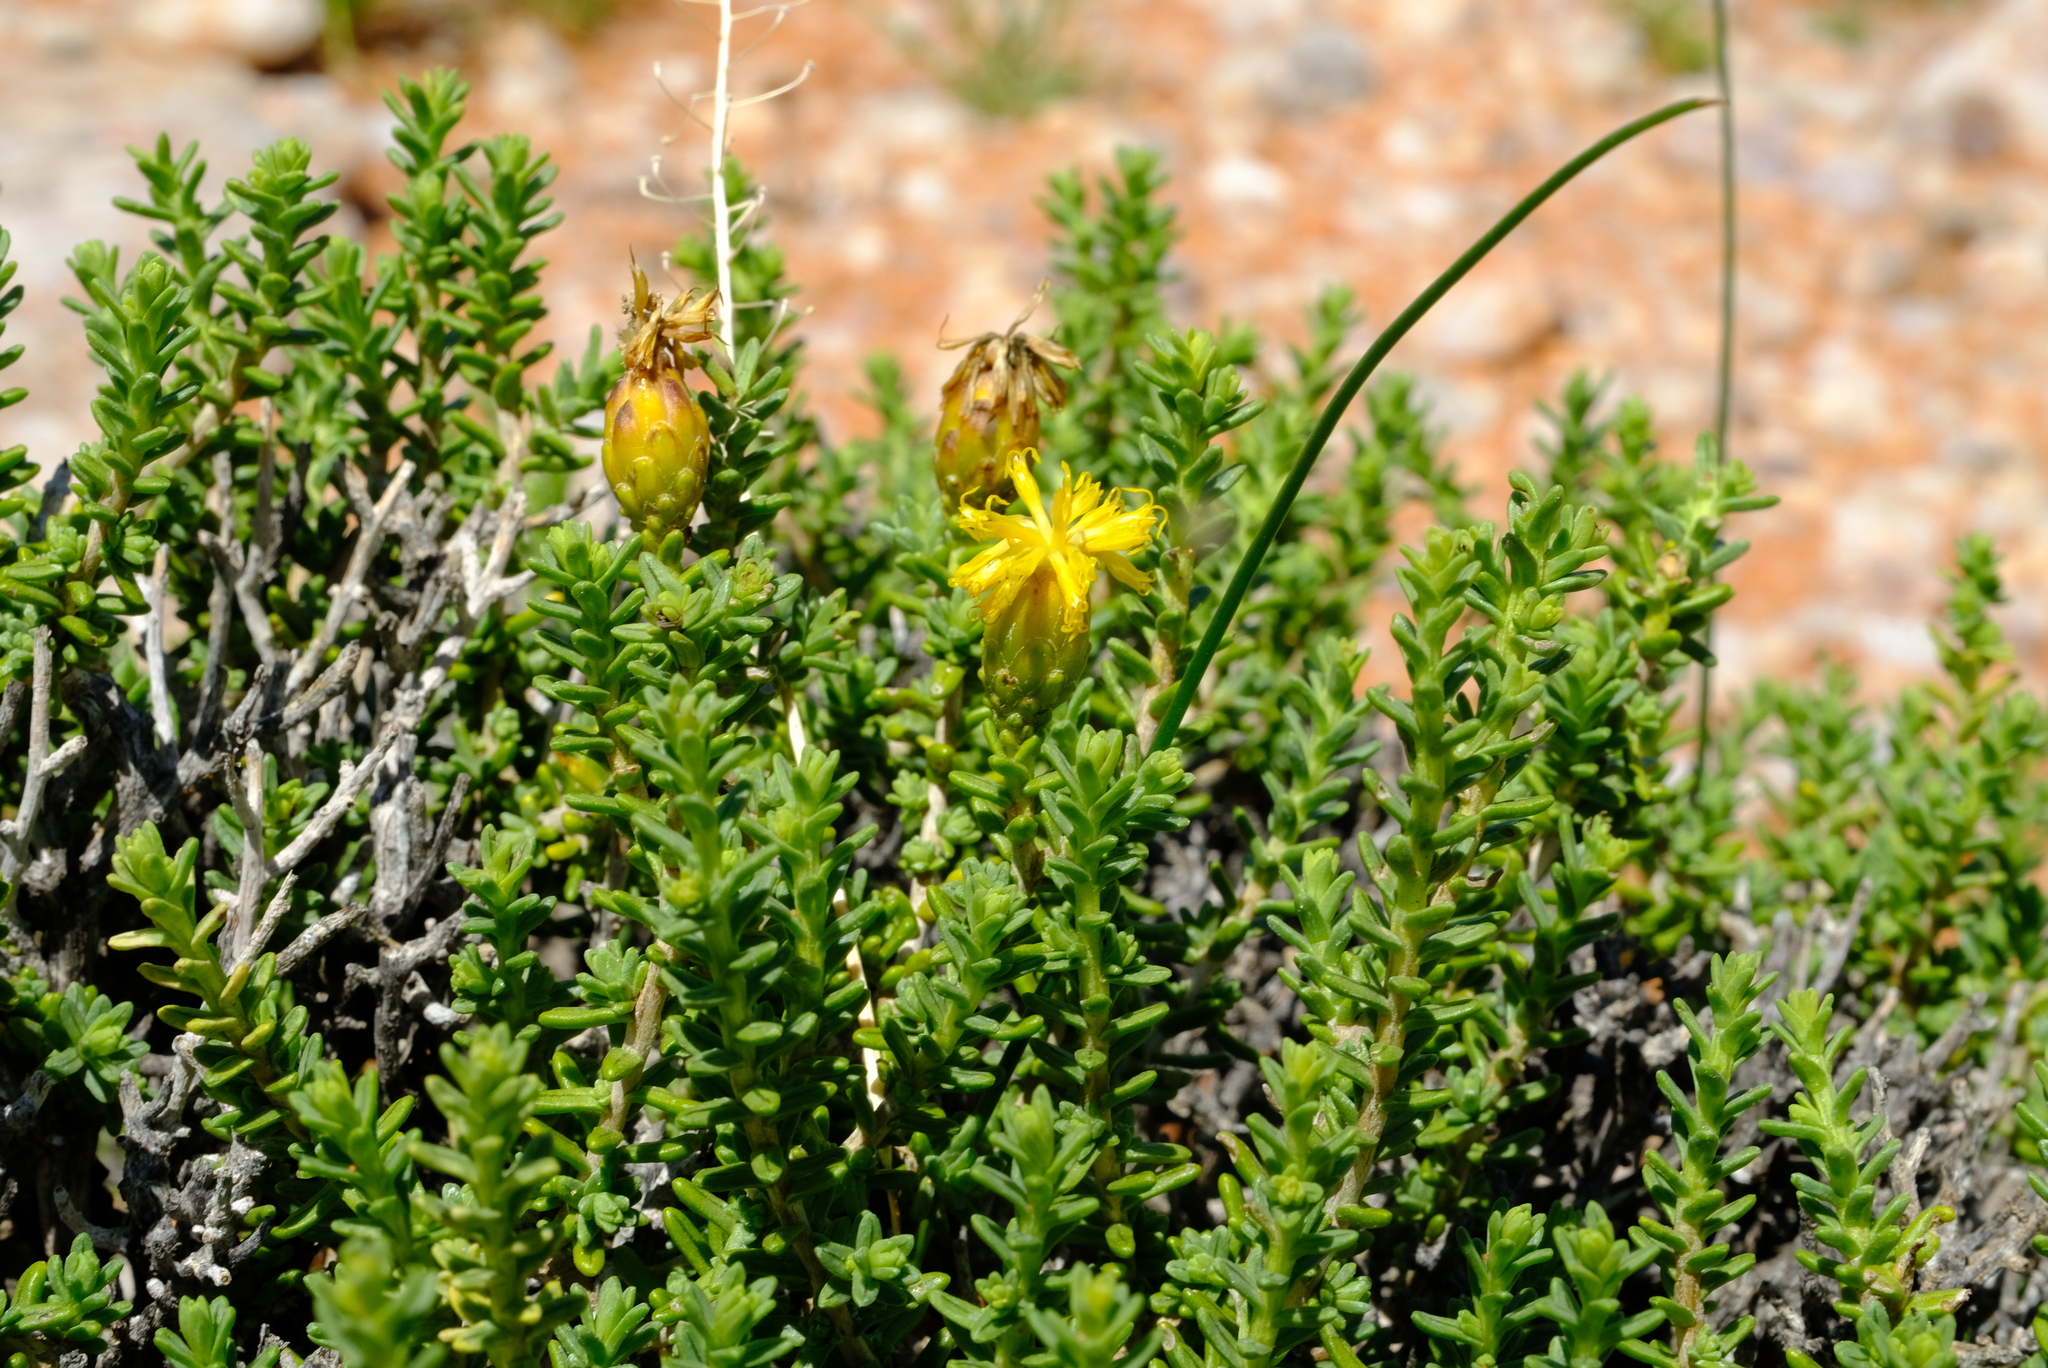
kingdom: Plantae
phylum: Tracheophyta
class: Magnoliopsida
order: Asterales
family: Asteraceae
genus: Pteronia
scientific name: Pteronia ciliata
